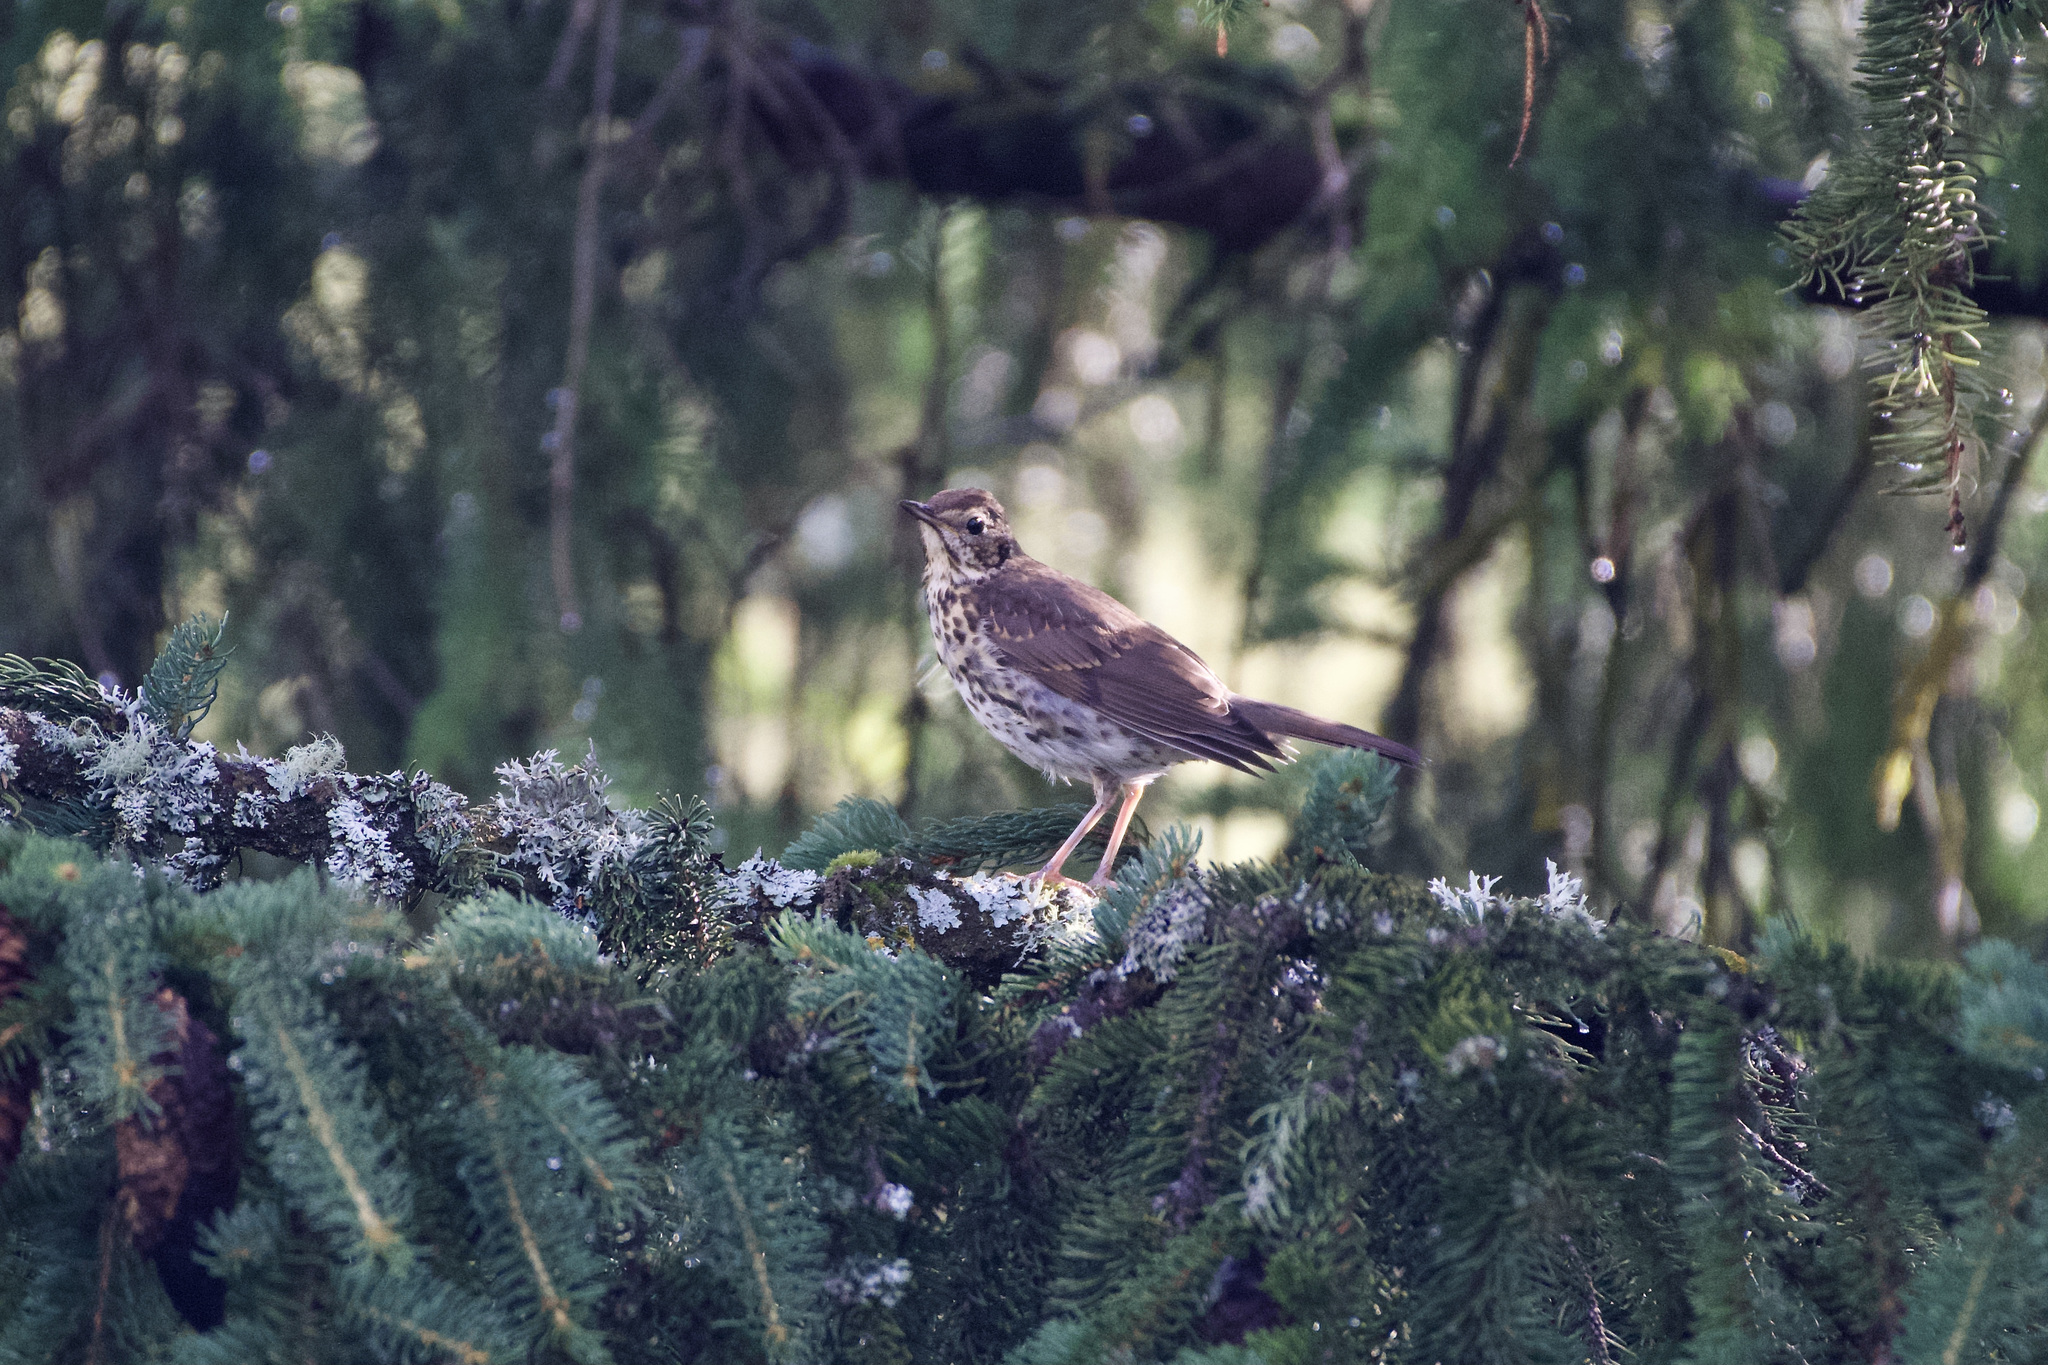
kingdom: Animalia
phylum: Chordata
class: Aves
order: Passeriformes
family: Turdidae
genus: Turdus
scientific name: Turdus pilaris
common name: Fieldfare
